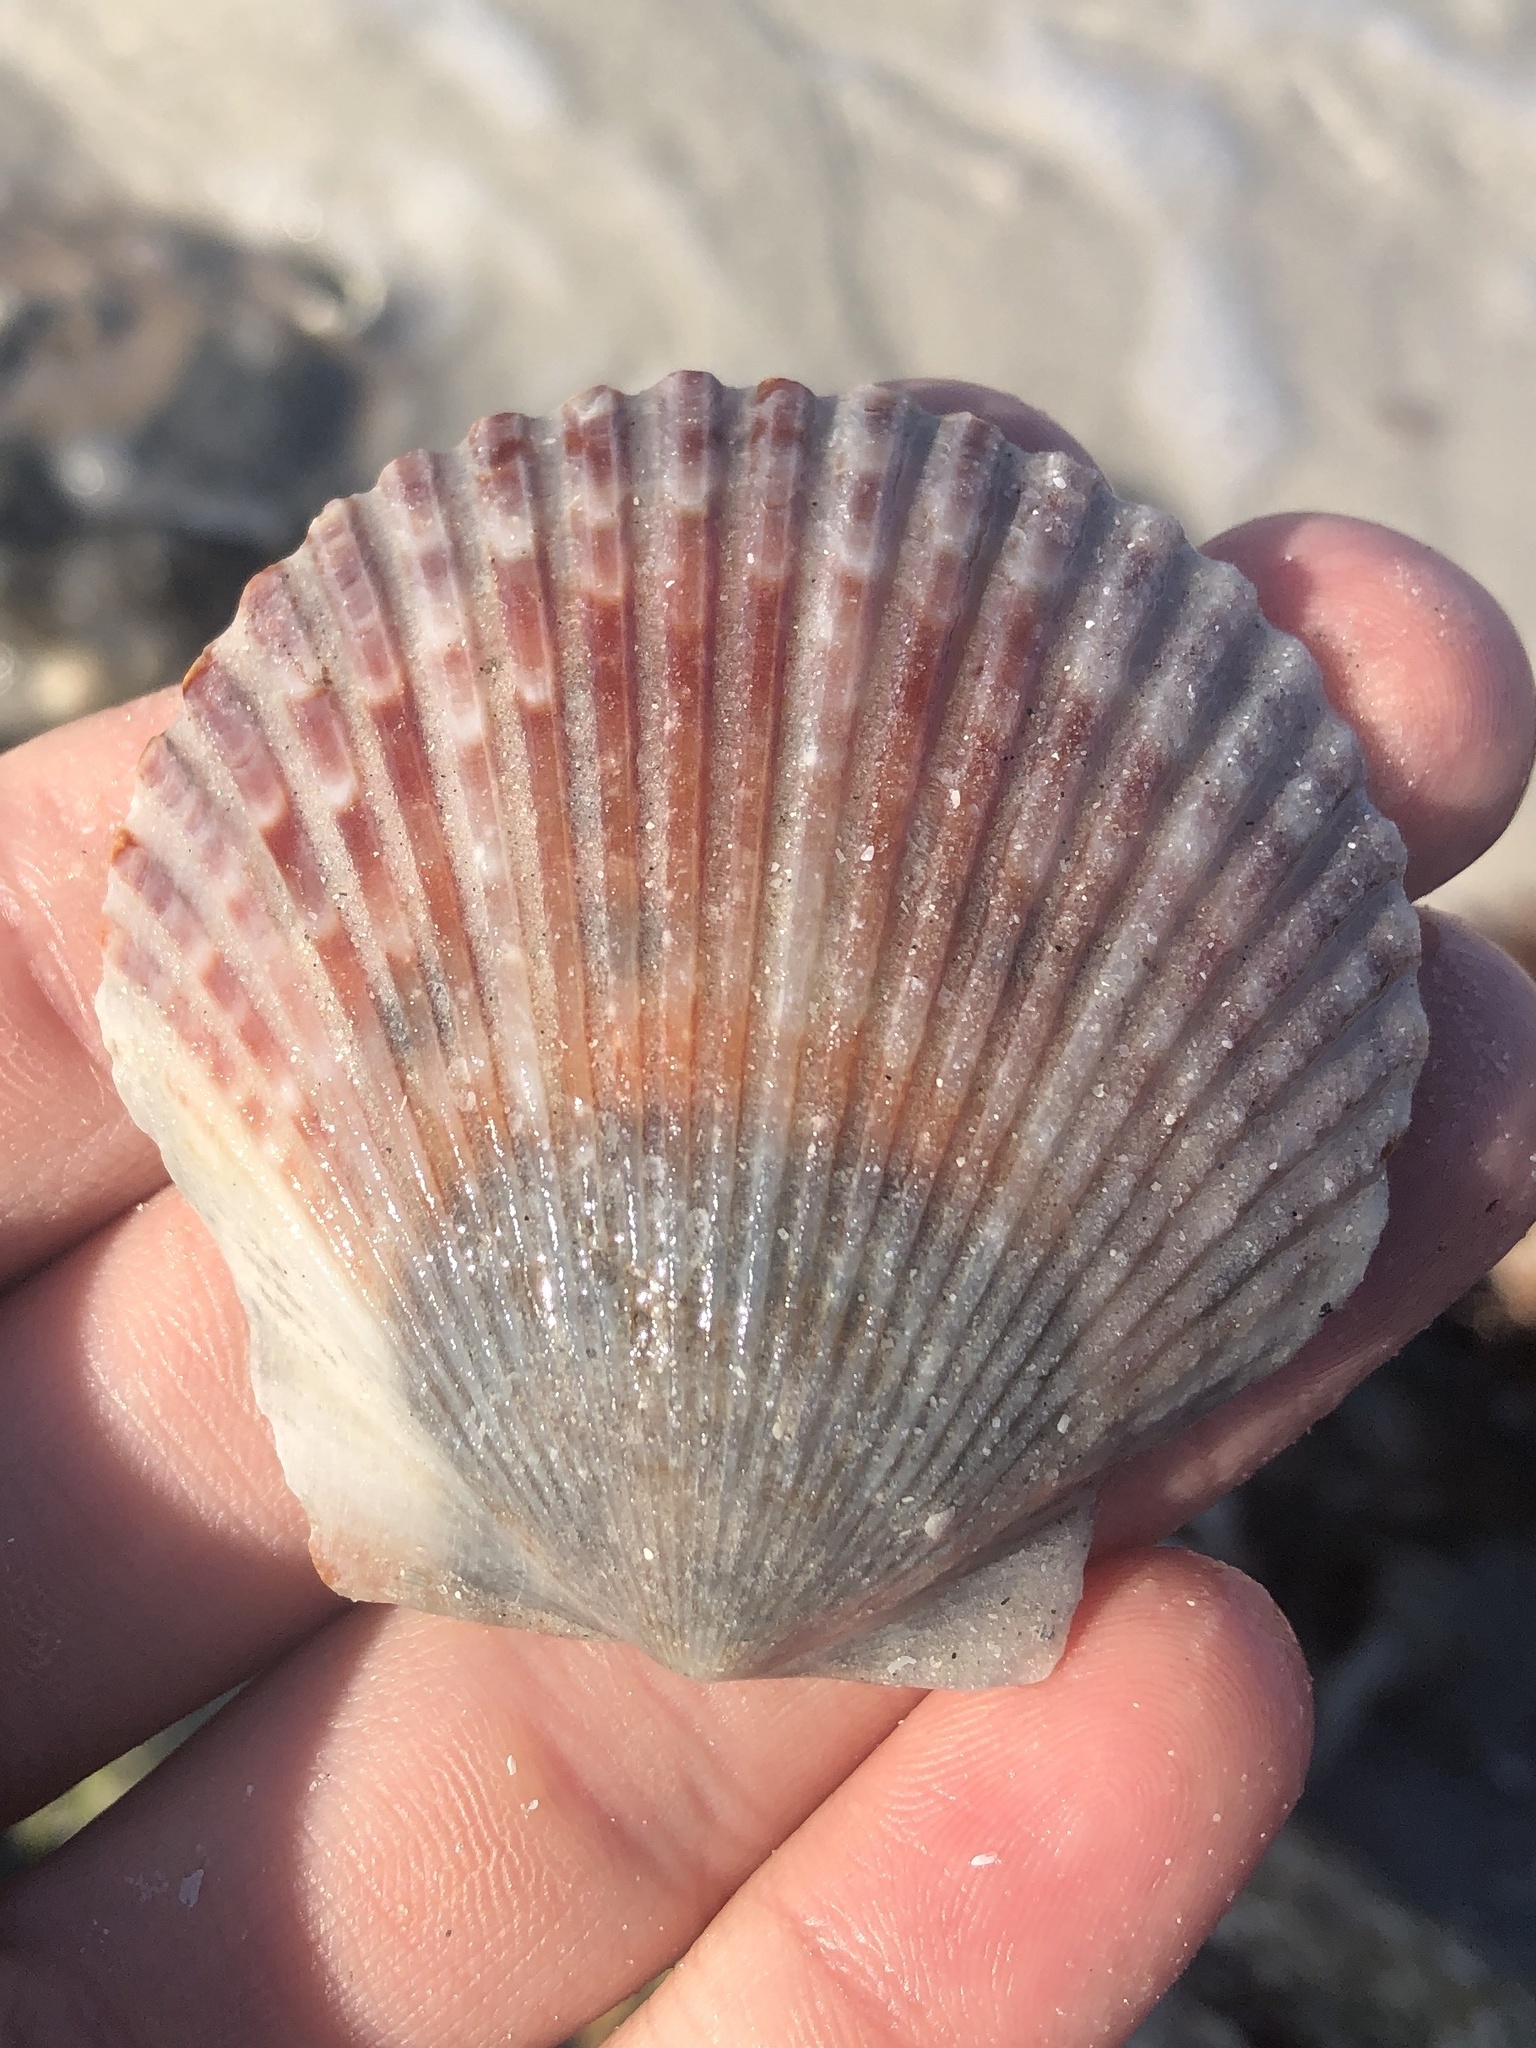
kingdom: Animalia
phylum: Mollusca
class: Bivalvia
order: Pectinida
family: Pectinidae
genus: Argopecten
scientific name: Argopecten irradians
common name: Atlantic bay scallop
